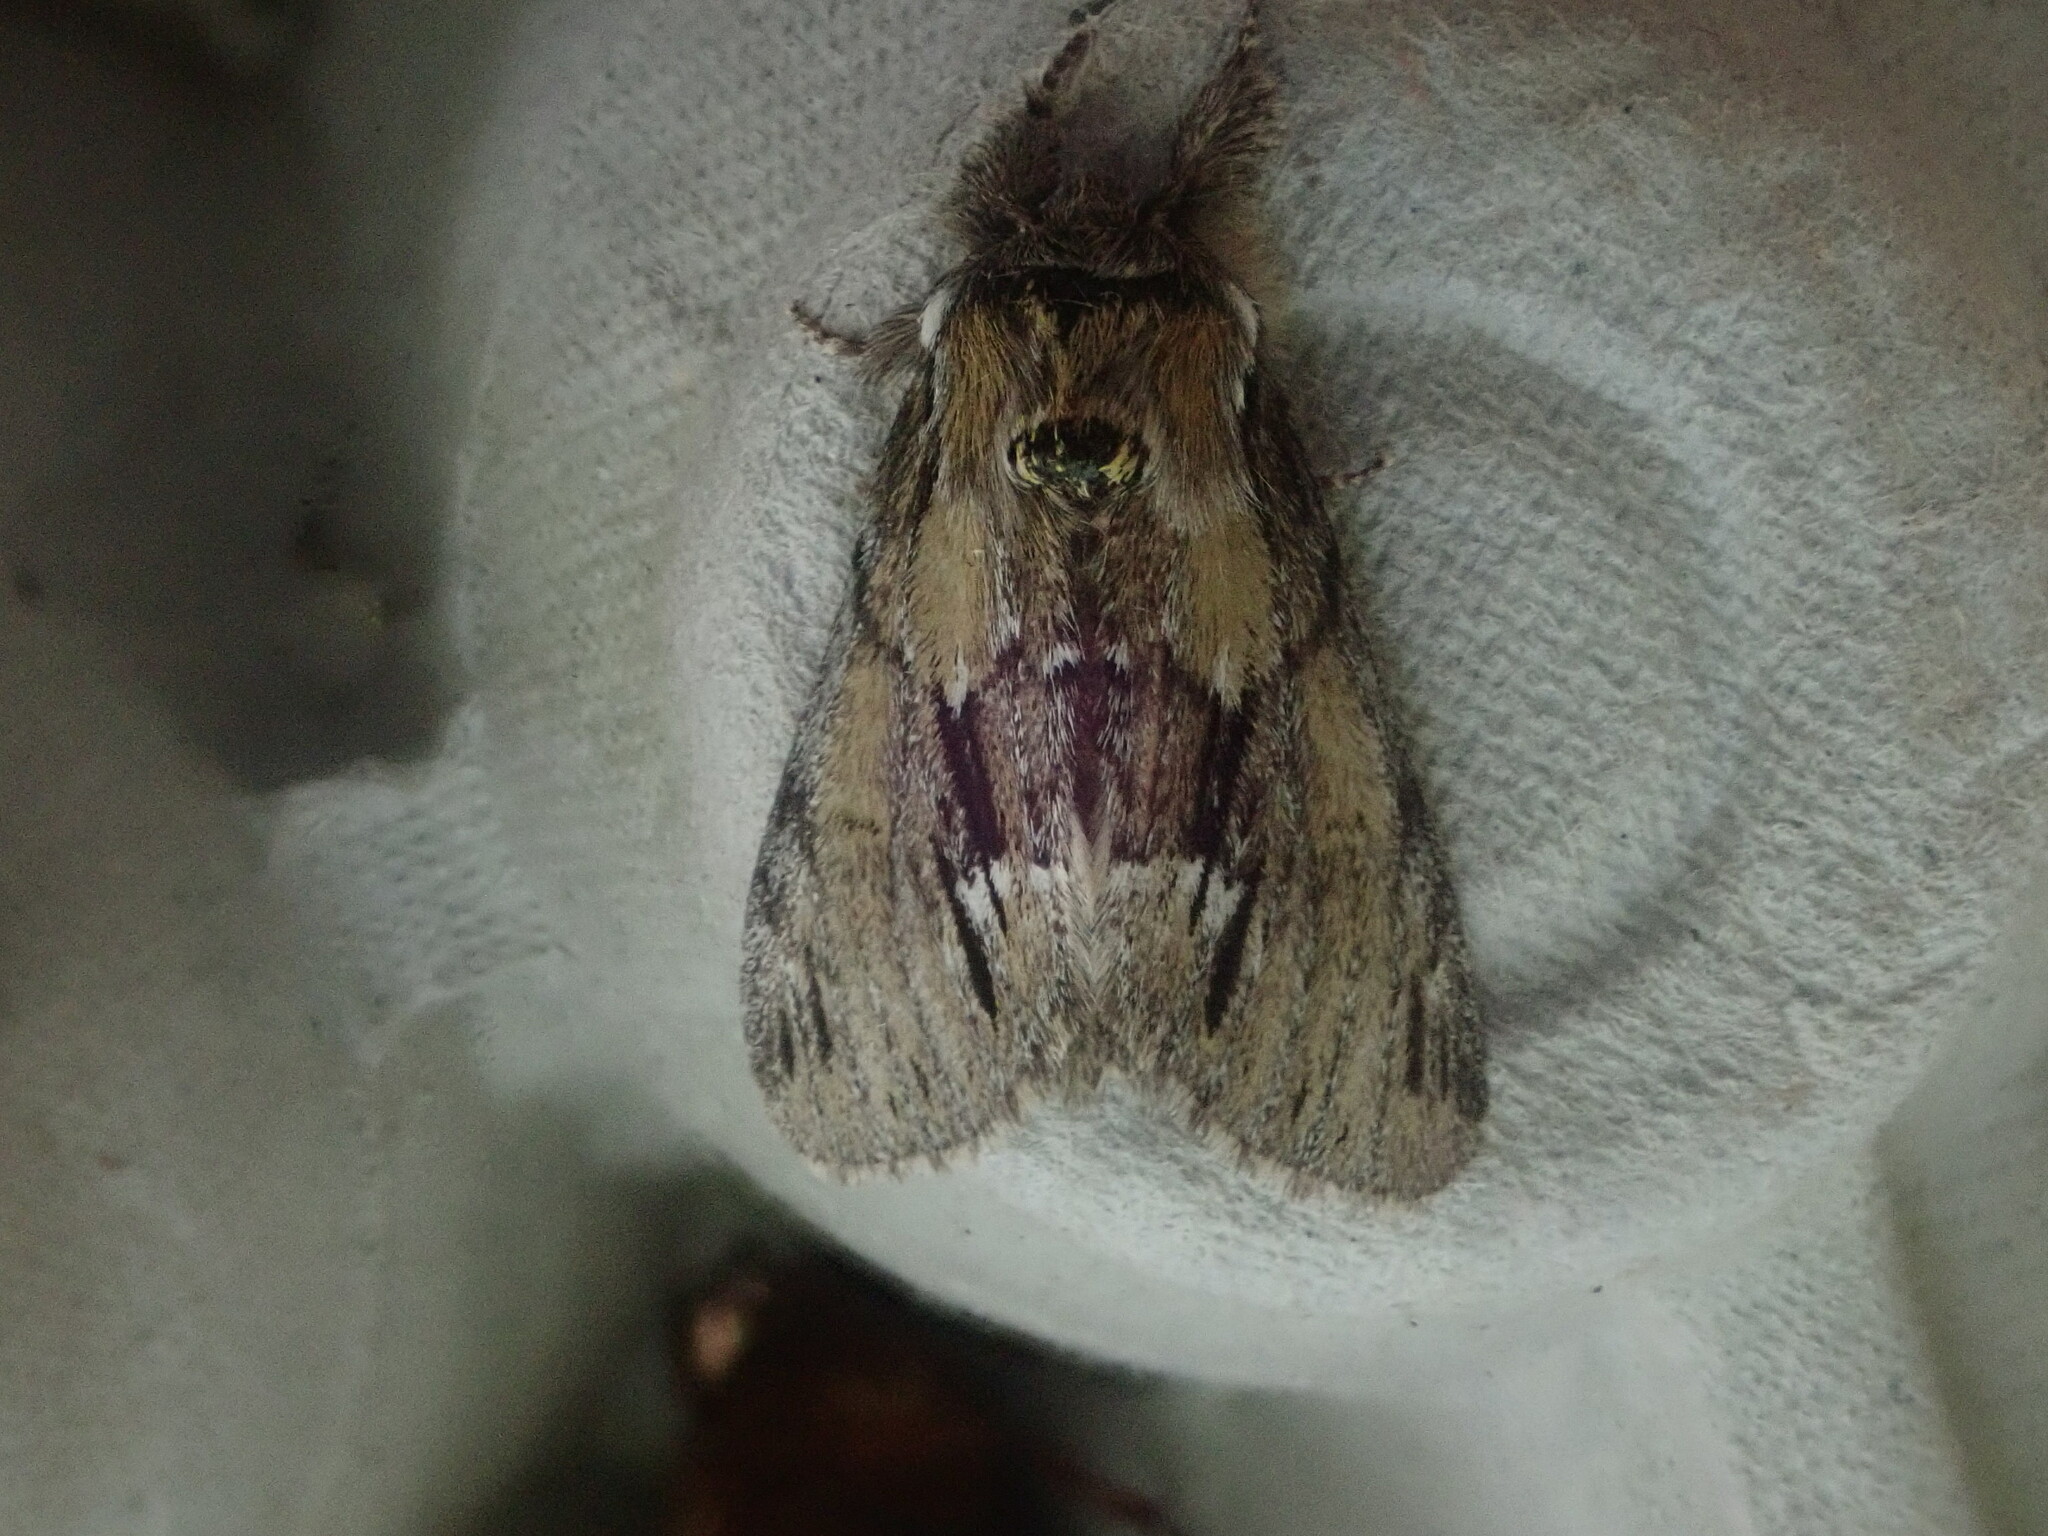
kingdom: Animalia
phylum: Arthropoda
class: Insecta
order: Lepidoptera
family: Notodontidae
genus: Paraeschra
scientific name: Paraeschra georgica
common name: Georgian prominent
